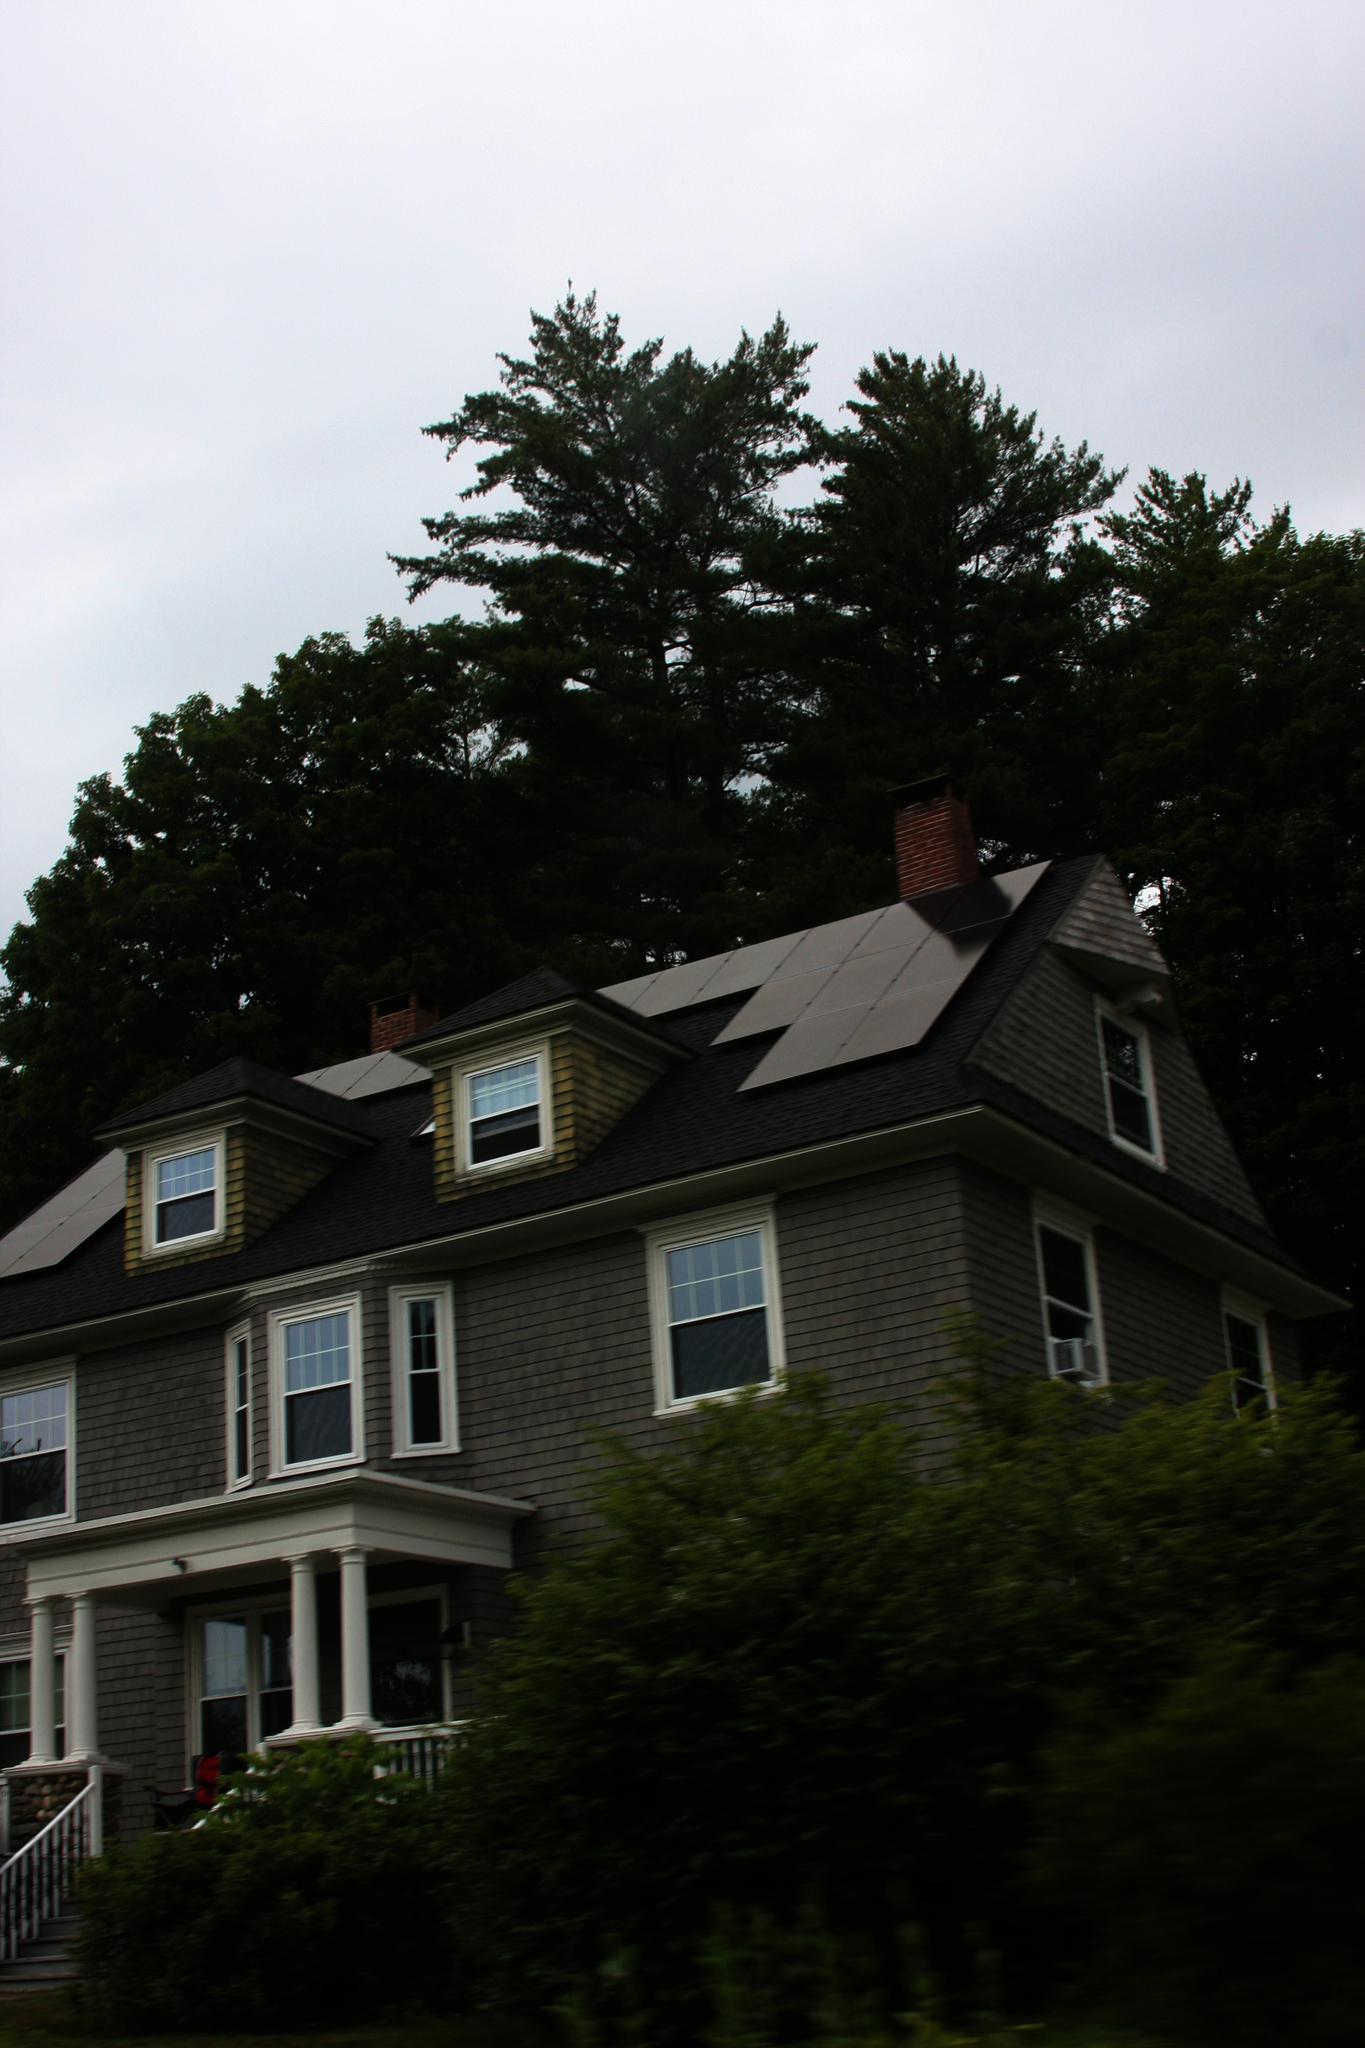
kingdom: Plantae
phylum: Tracheophyta
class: Pinopsida
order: Pinales
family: Pinaceae
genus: Pinus
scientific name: Pinus strobus
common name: Weymouth pine
